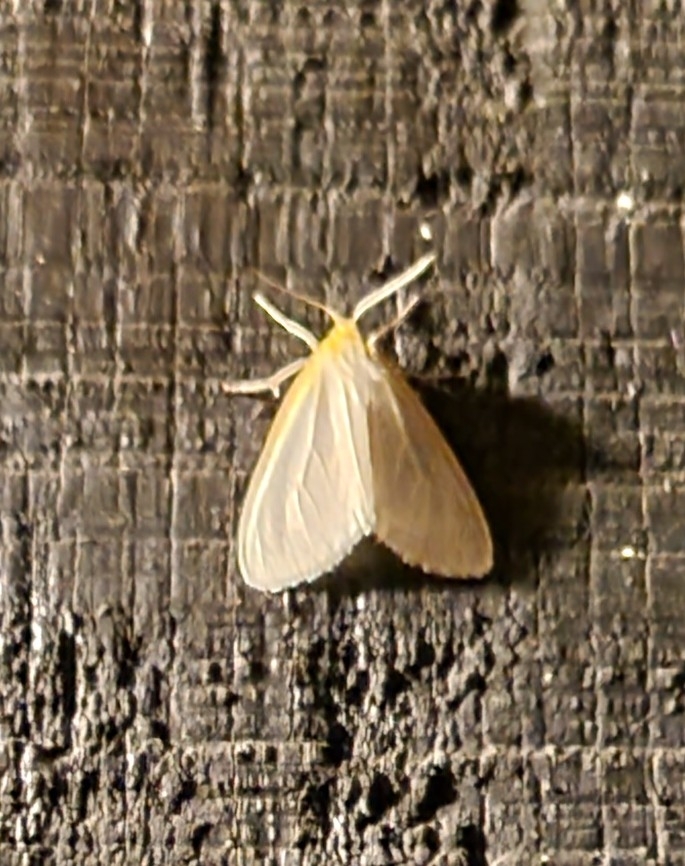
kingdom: Animalia
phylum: Arthropoda
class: Insecta
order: Lepidoptera
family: Erebidae
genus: Cycnia
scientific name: Cycnia tenera
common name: Delicate cycnia moth
